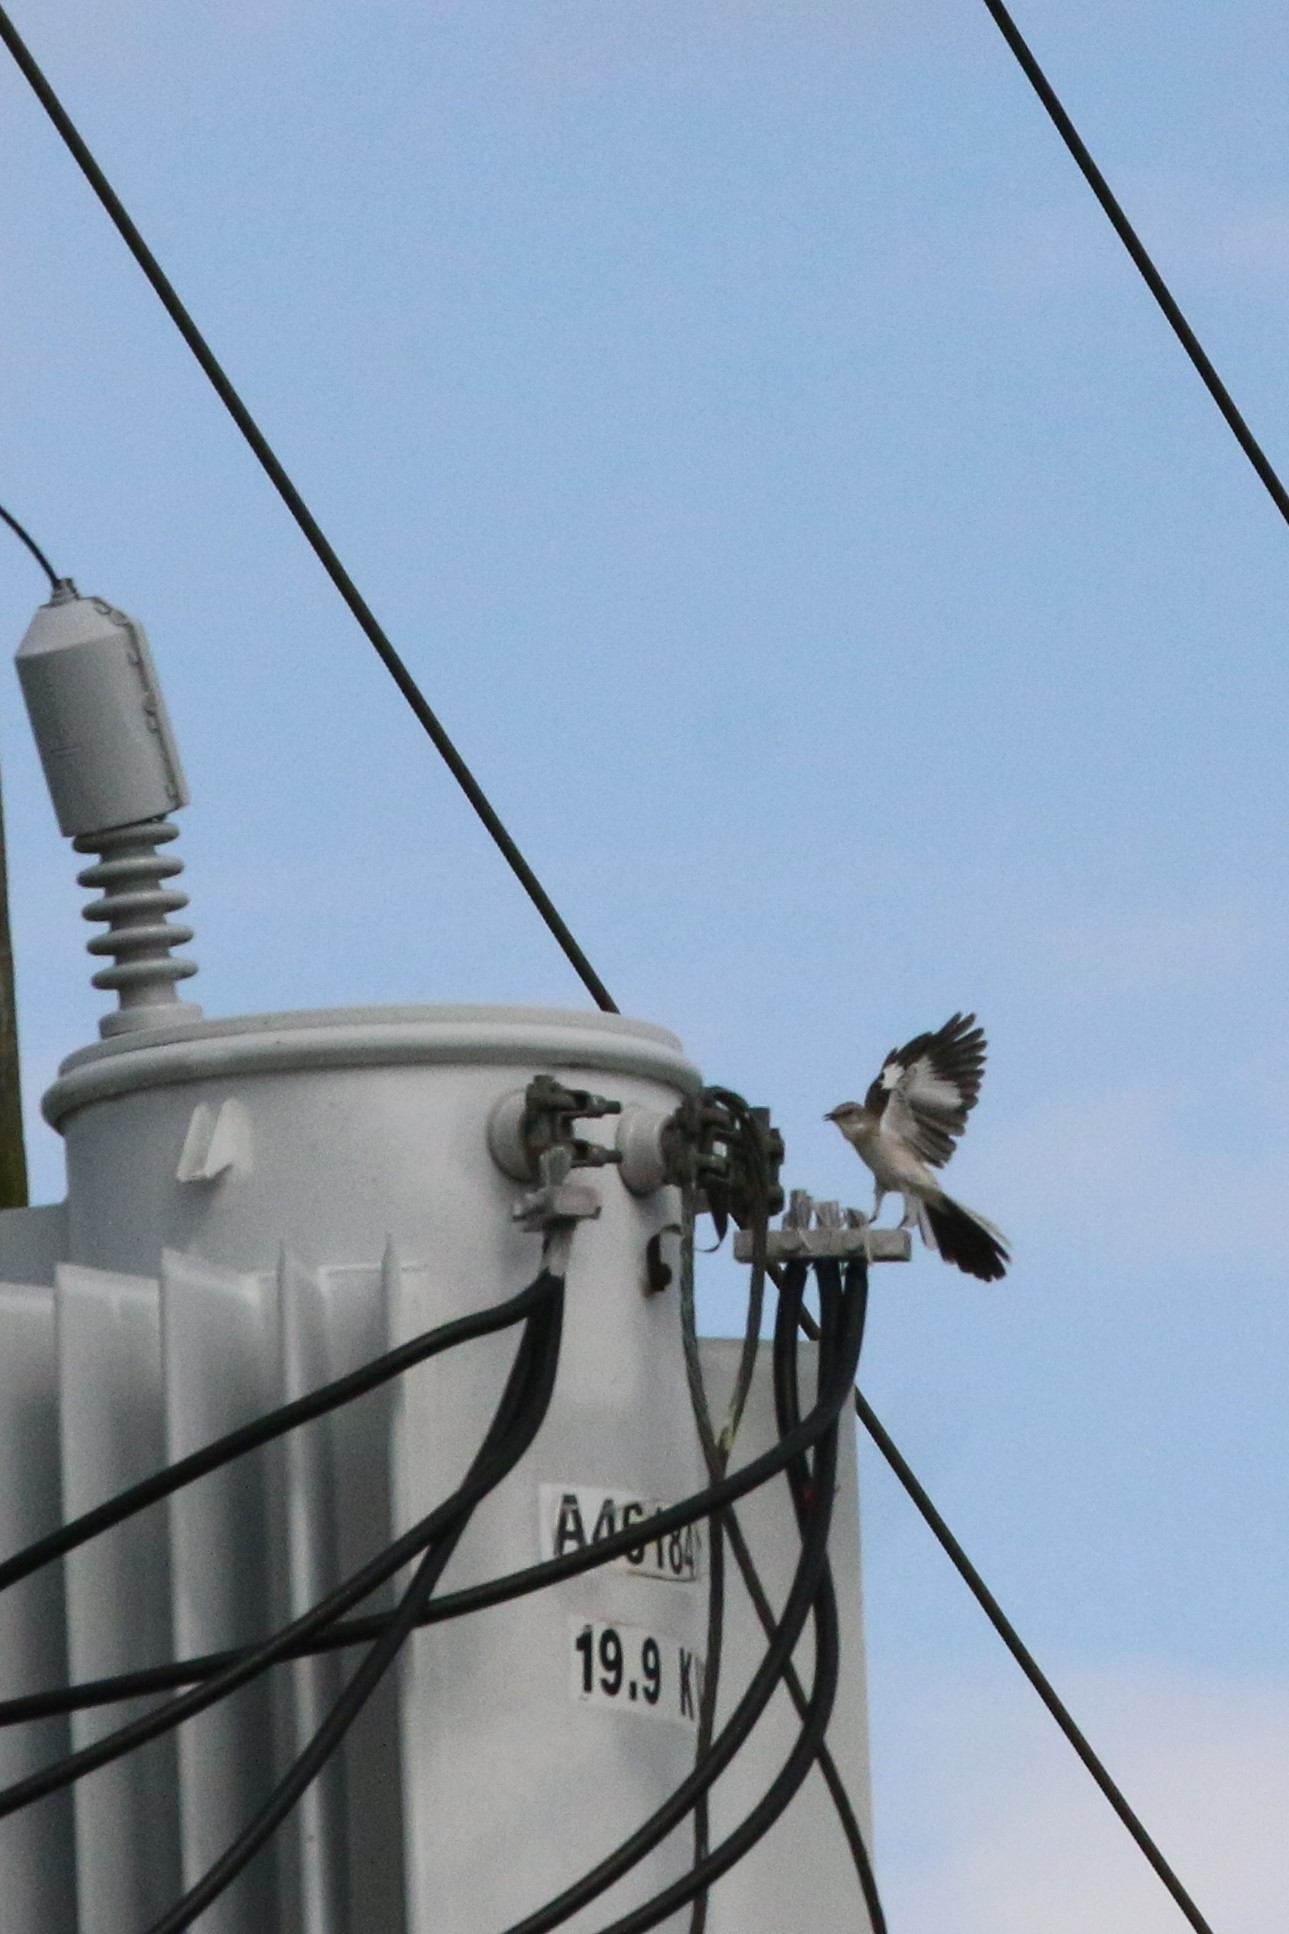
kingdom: Animalia
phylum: Chordata
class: Aves
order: Passeriformes
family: Mimidae
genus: Mimus
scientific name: Mimus polyglottos
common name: Northern mockingbird
